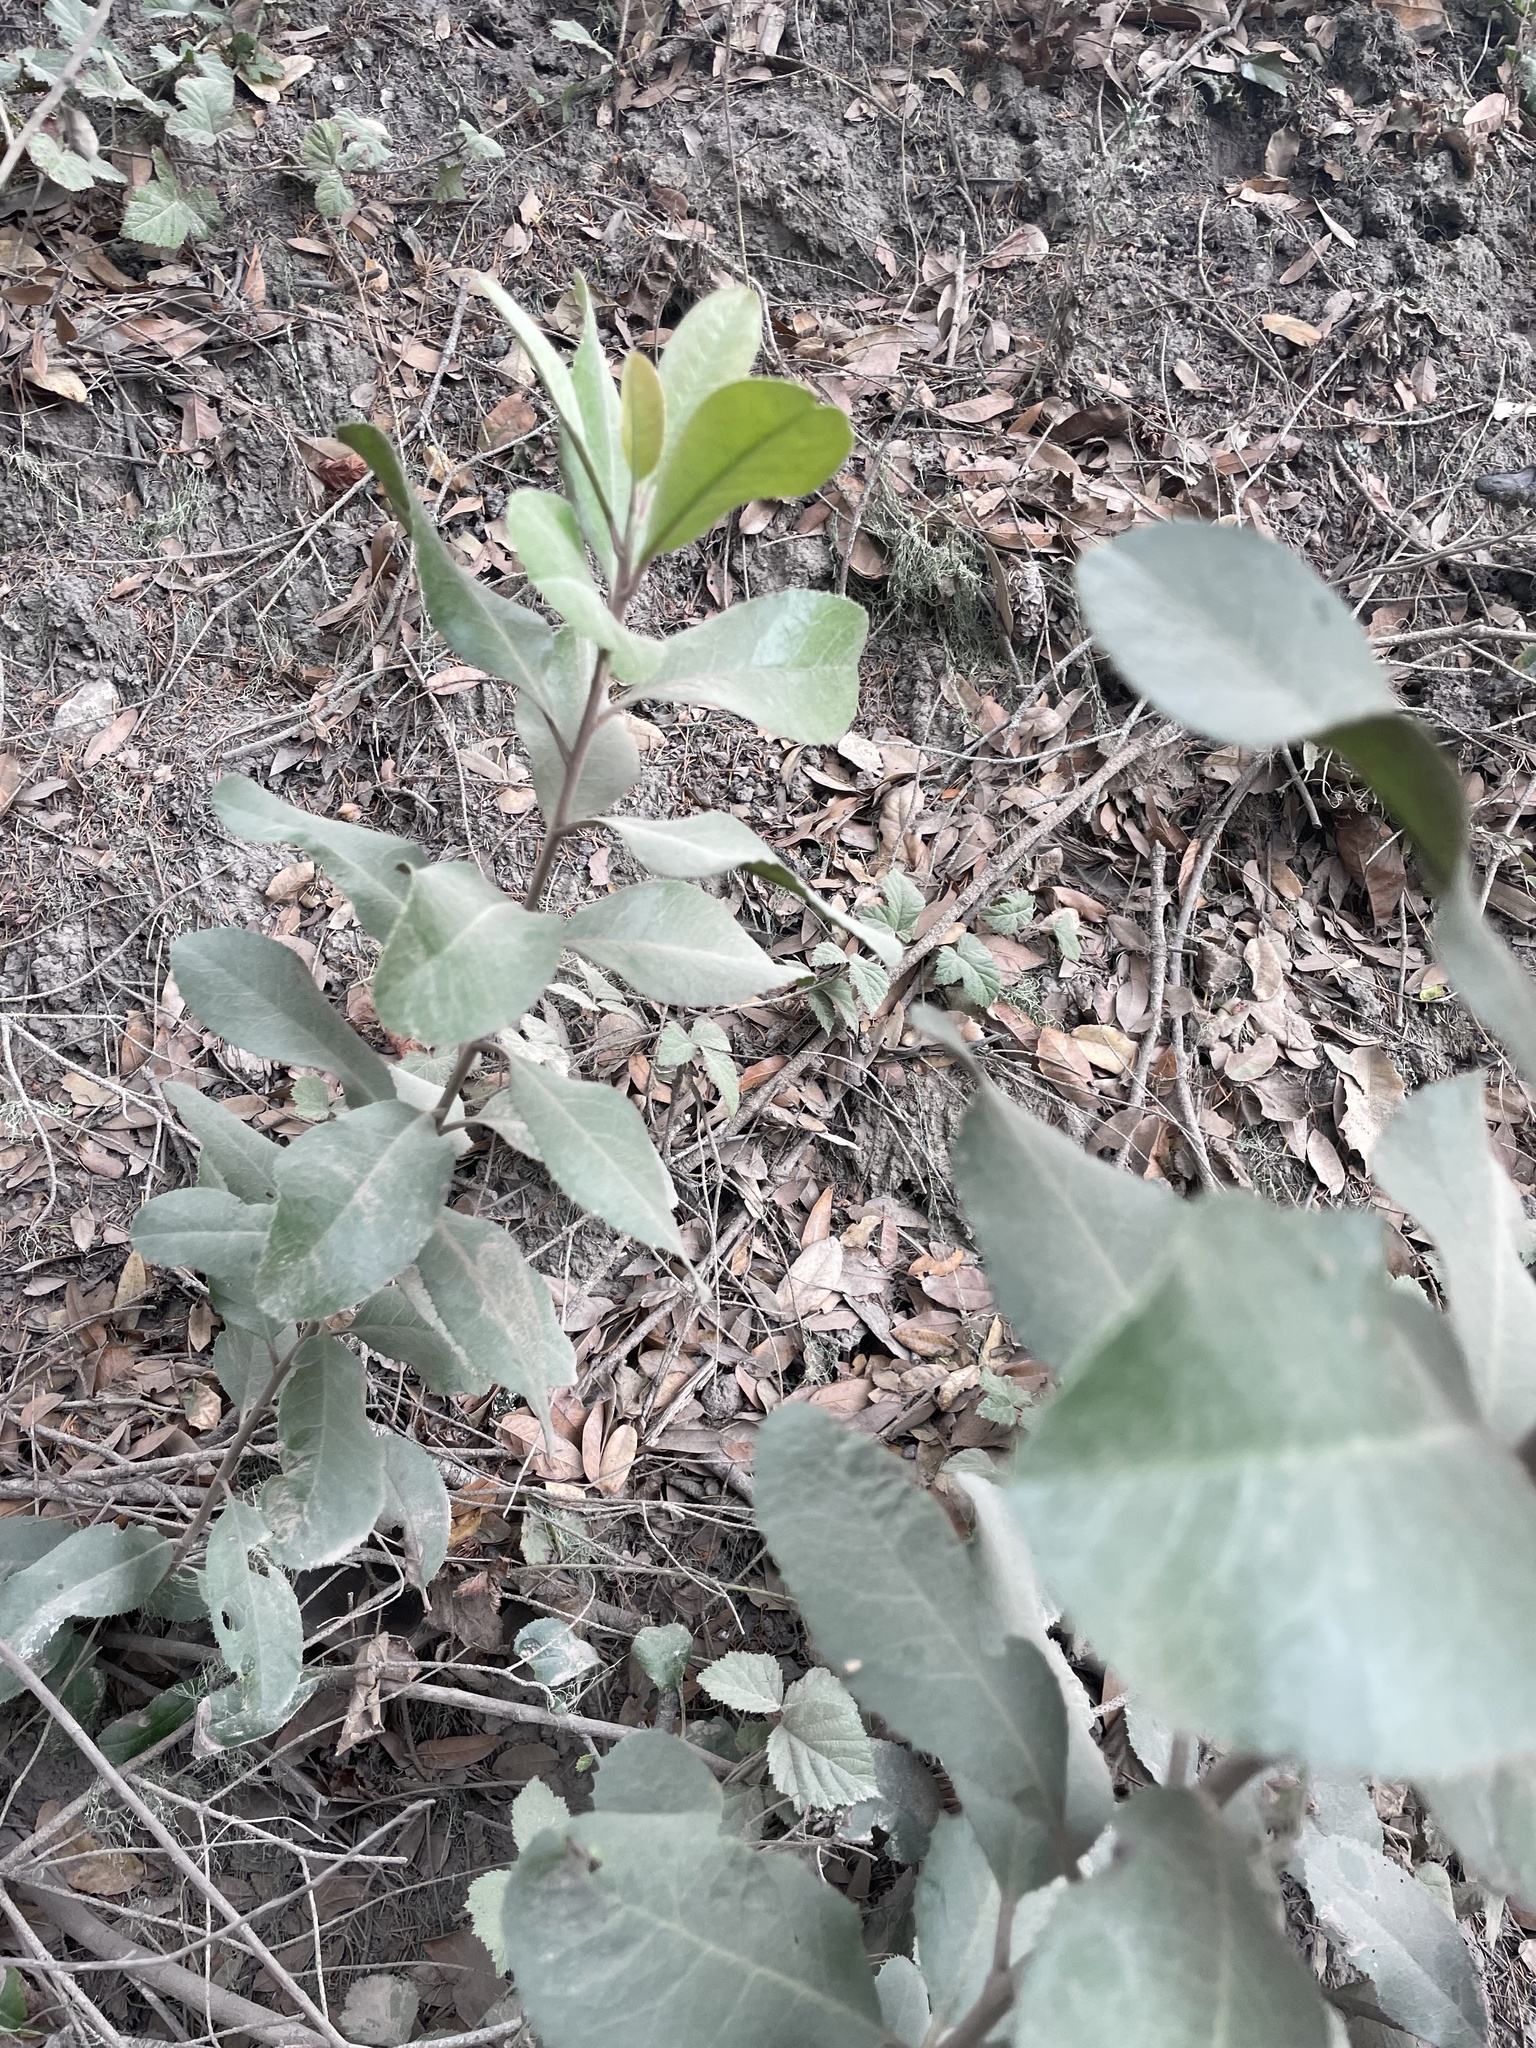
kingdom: Plantae
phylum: Tracheophyta
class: Magnoliopsida
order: Rosales
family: Rosaceae
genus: Heteromeles
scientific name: Heteromeles arbutifolia
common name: California-holly
